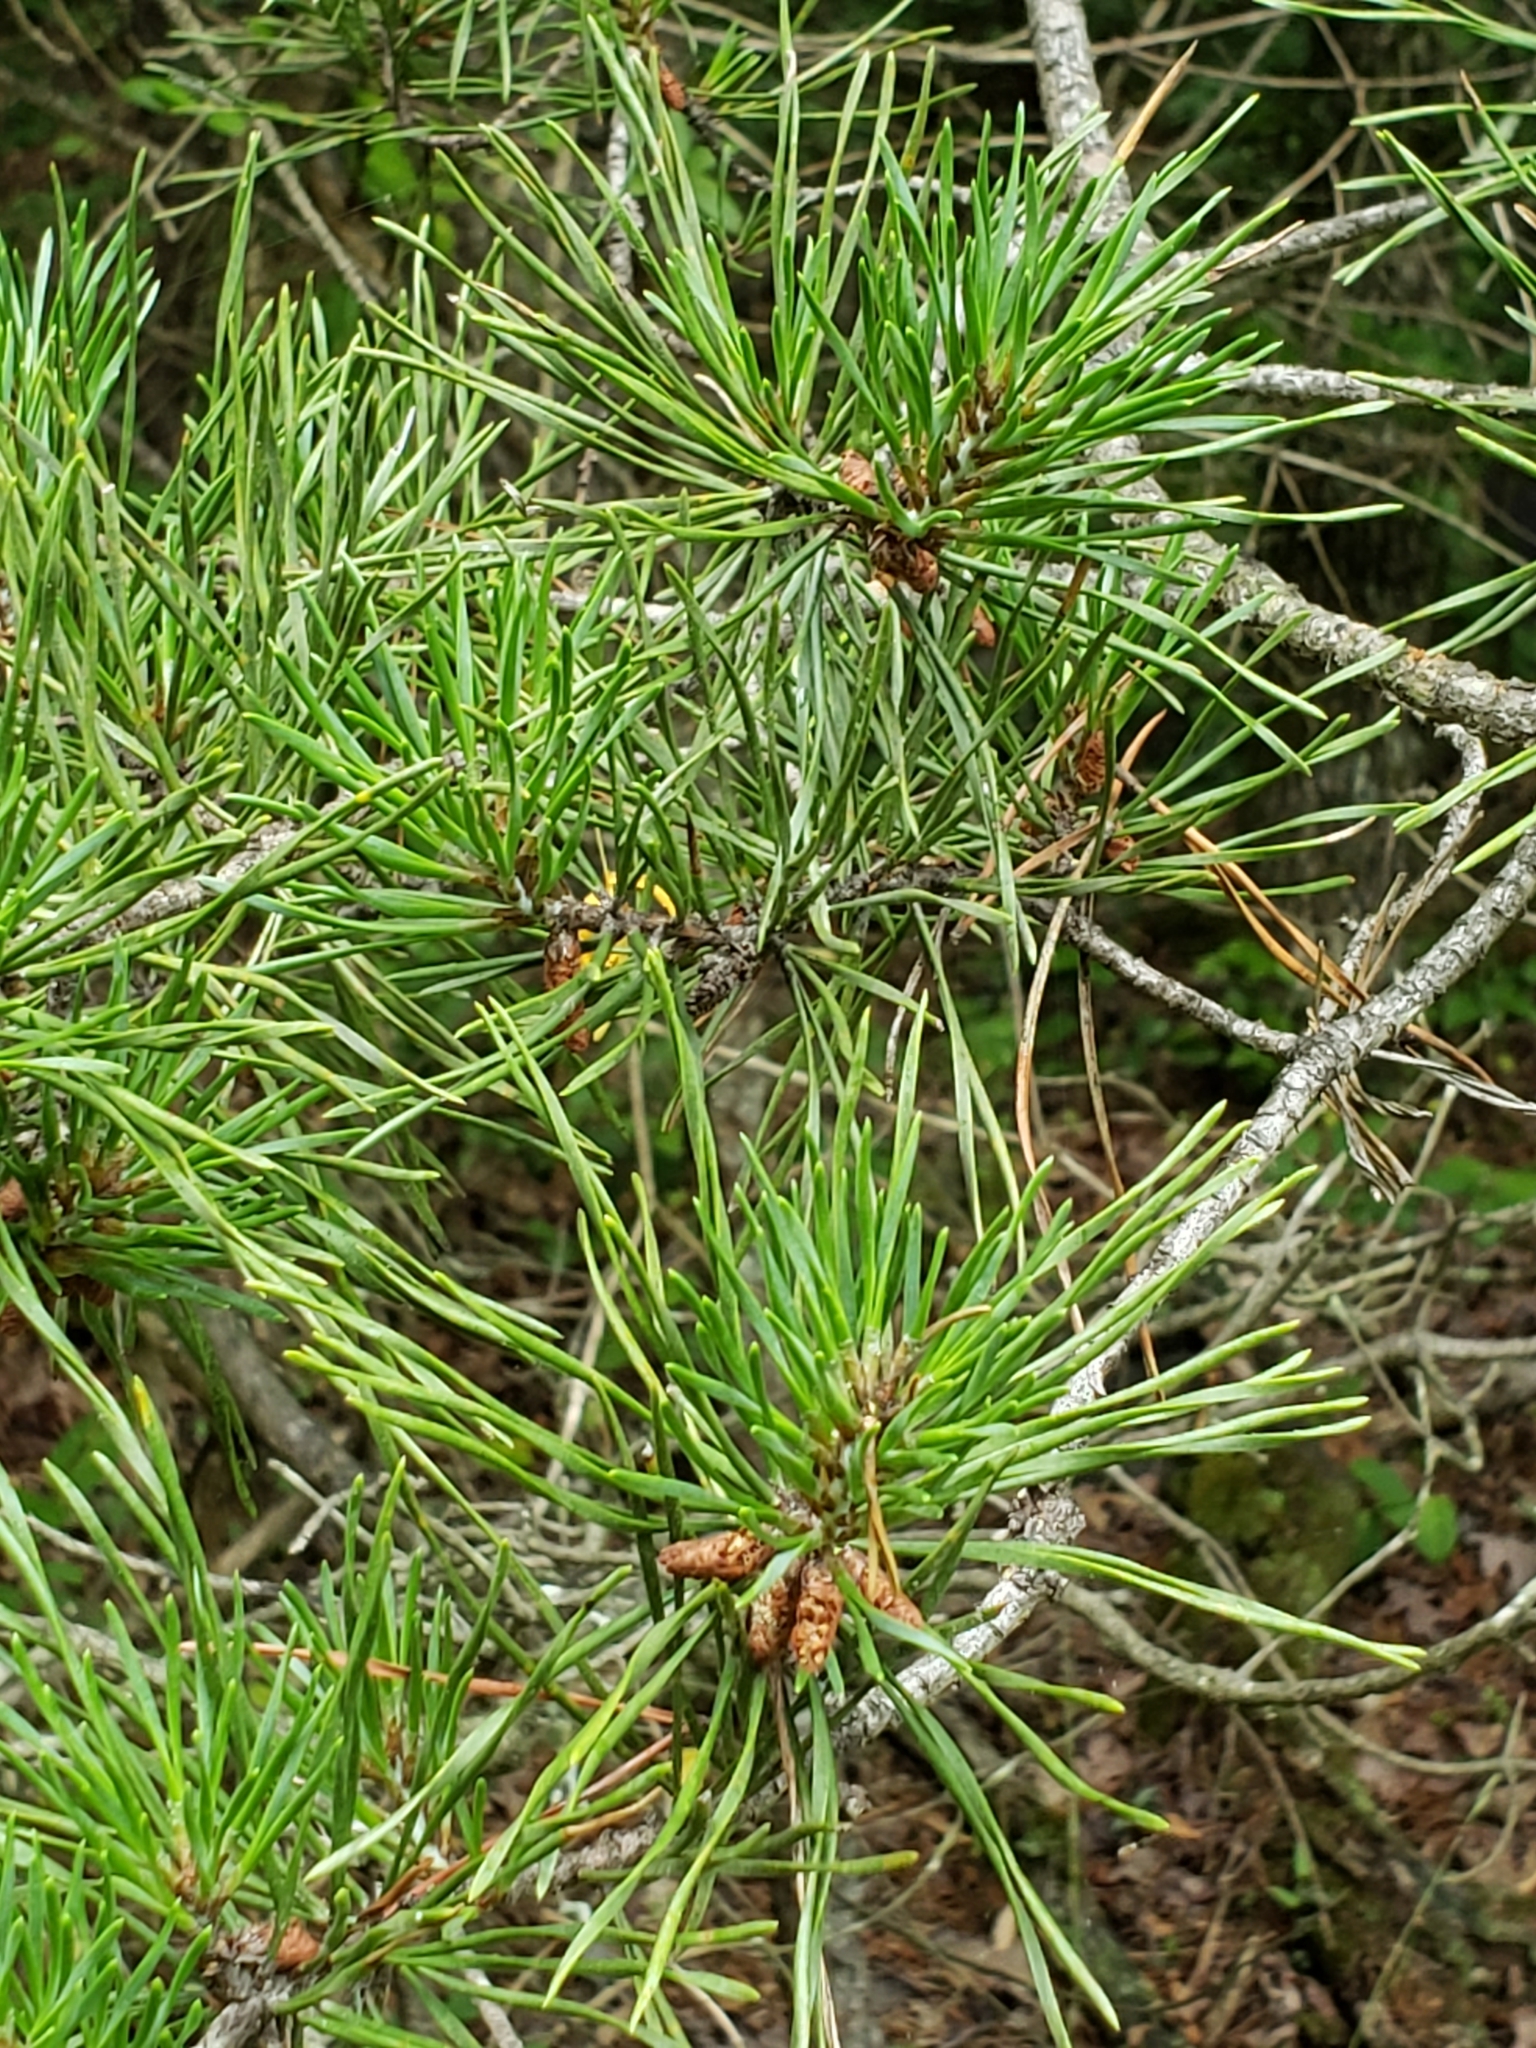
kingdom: Plantae
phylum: Tracheophyta
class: Pinopsida
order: Pinales
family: Pinaceae
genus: Pinus
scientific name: Pinus virginiana
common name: Scrub pine
